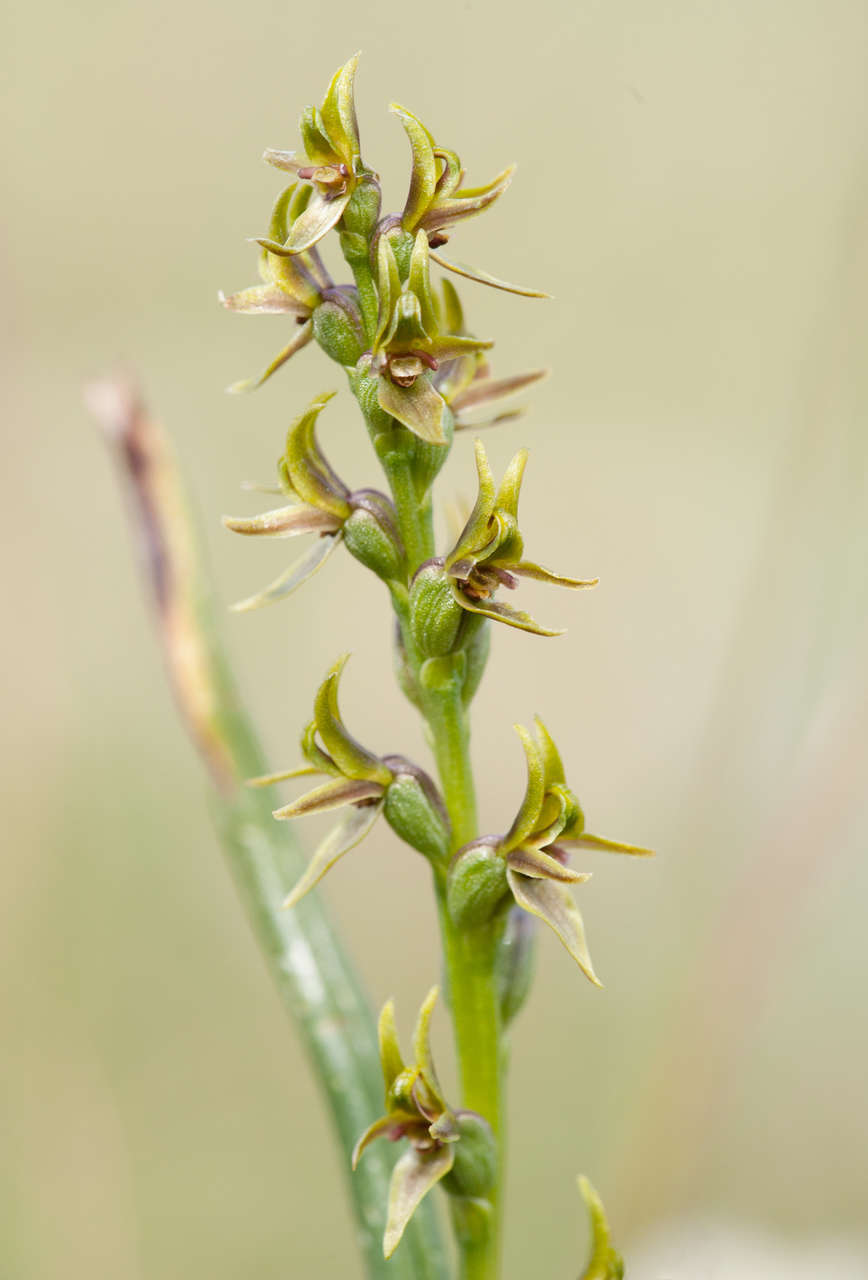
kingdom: Plantae
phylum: Tracheophyta
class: Liliopsida
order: Asparagales
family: Orchidaceae
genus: Prasophyllum
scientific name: Prasophyllum alpinum
